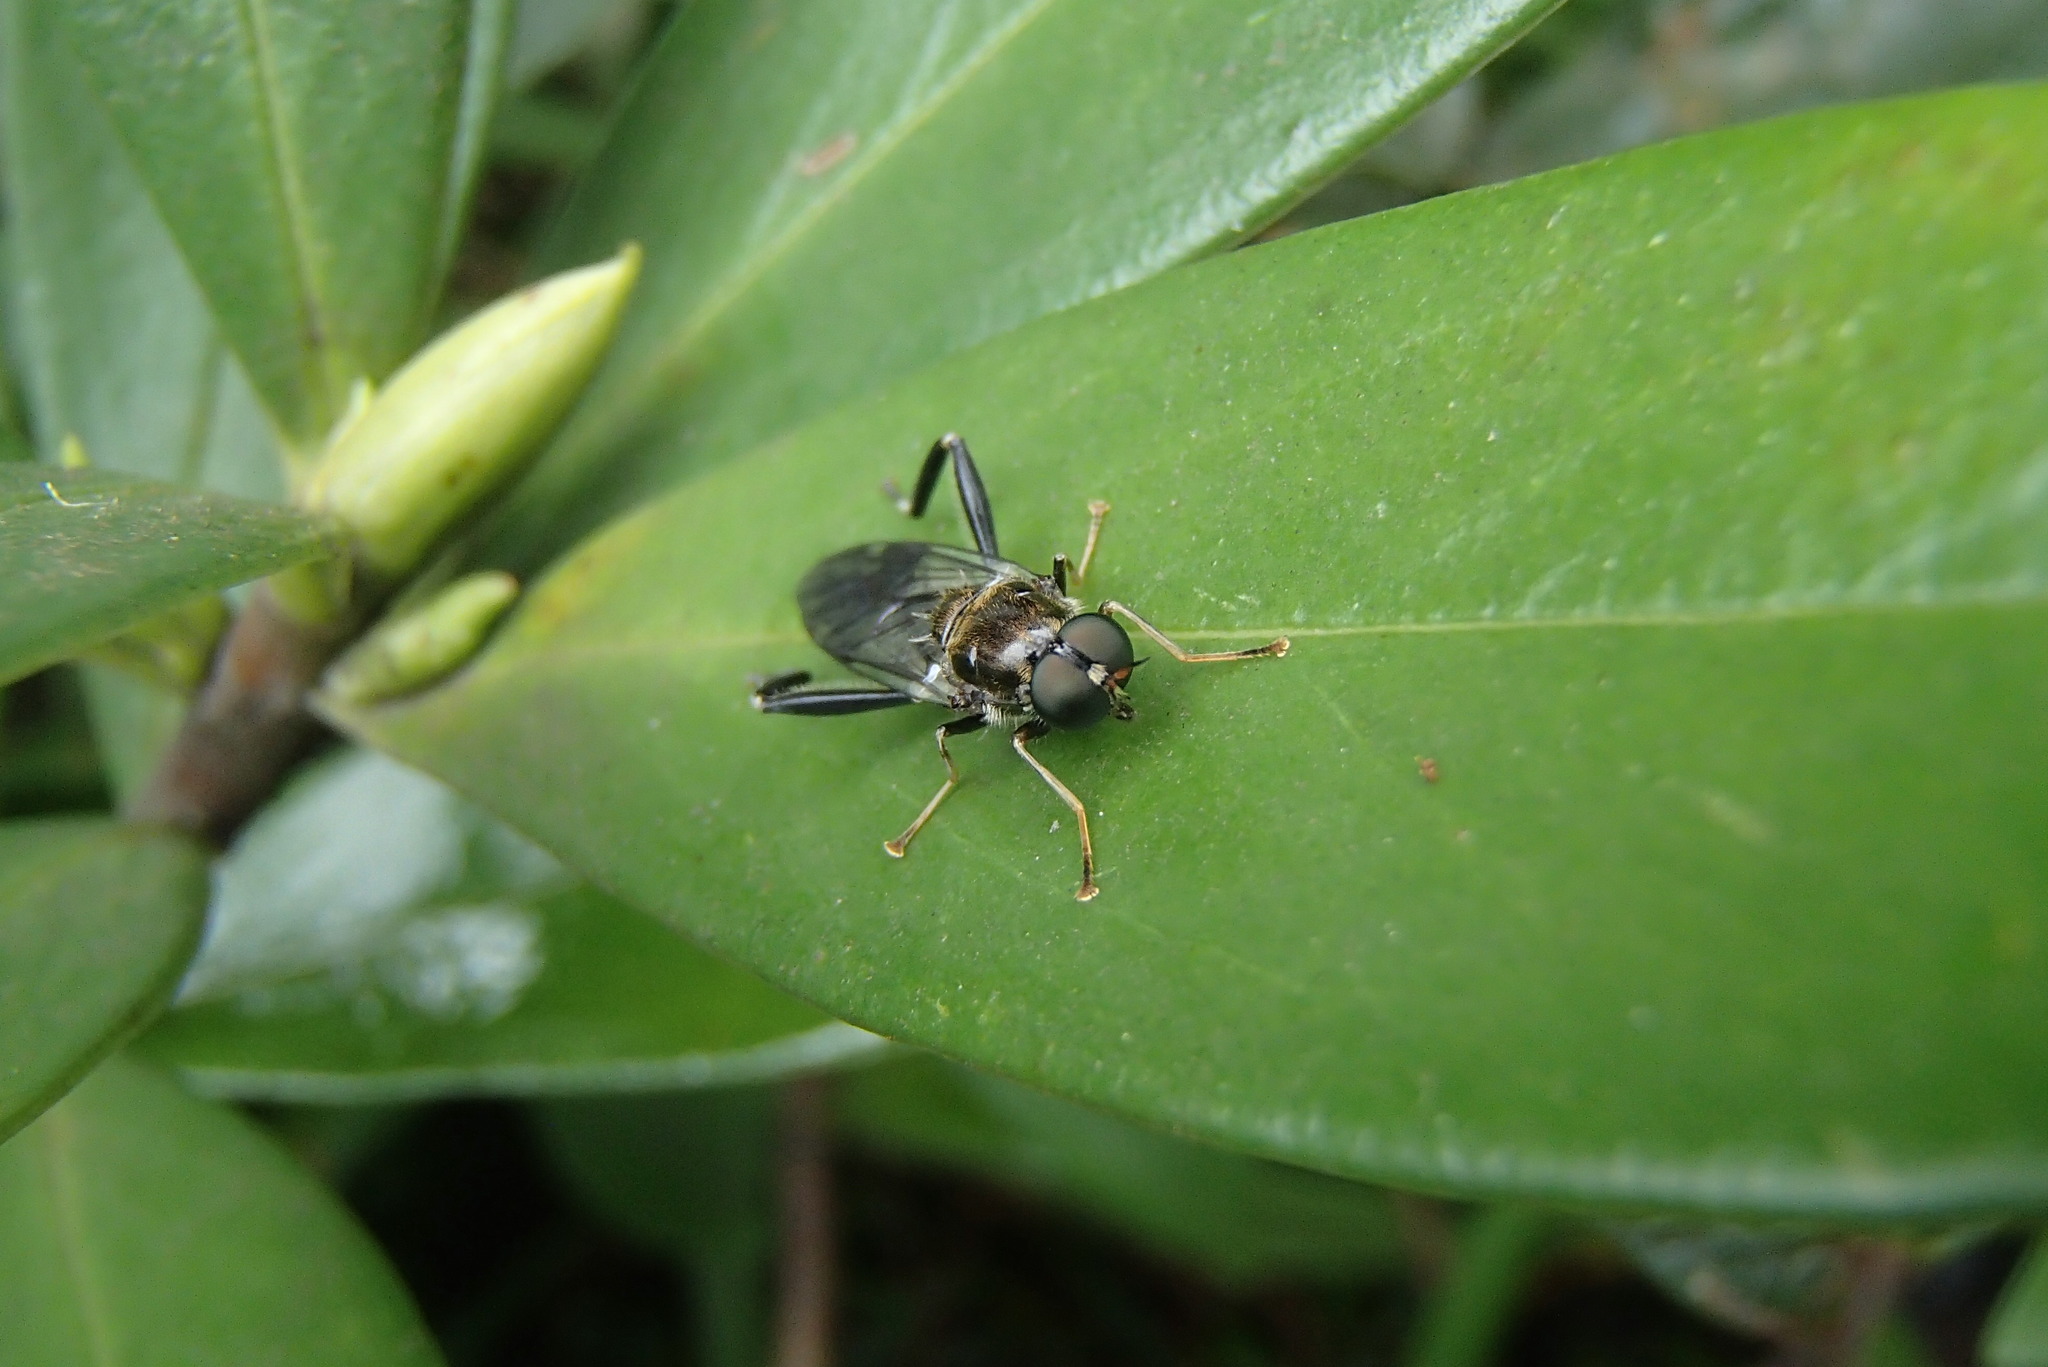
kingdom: Animalia
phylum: Arthropoda
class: Insecta
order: Diptera
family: Stratiomyidae
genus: Exaireta
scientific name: Exaireta spinigera
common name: Blue soldier fly
